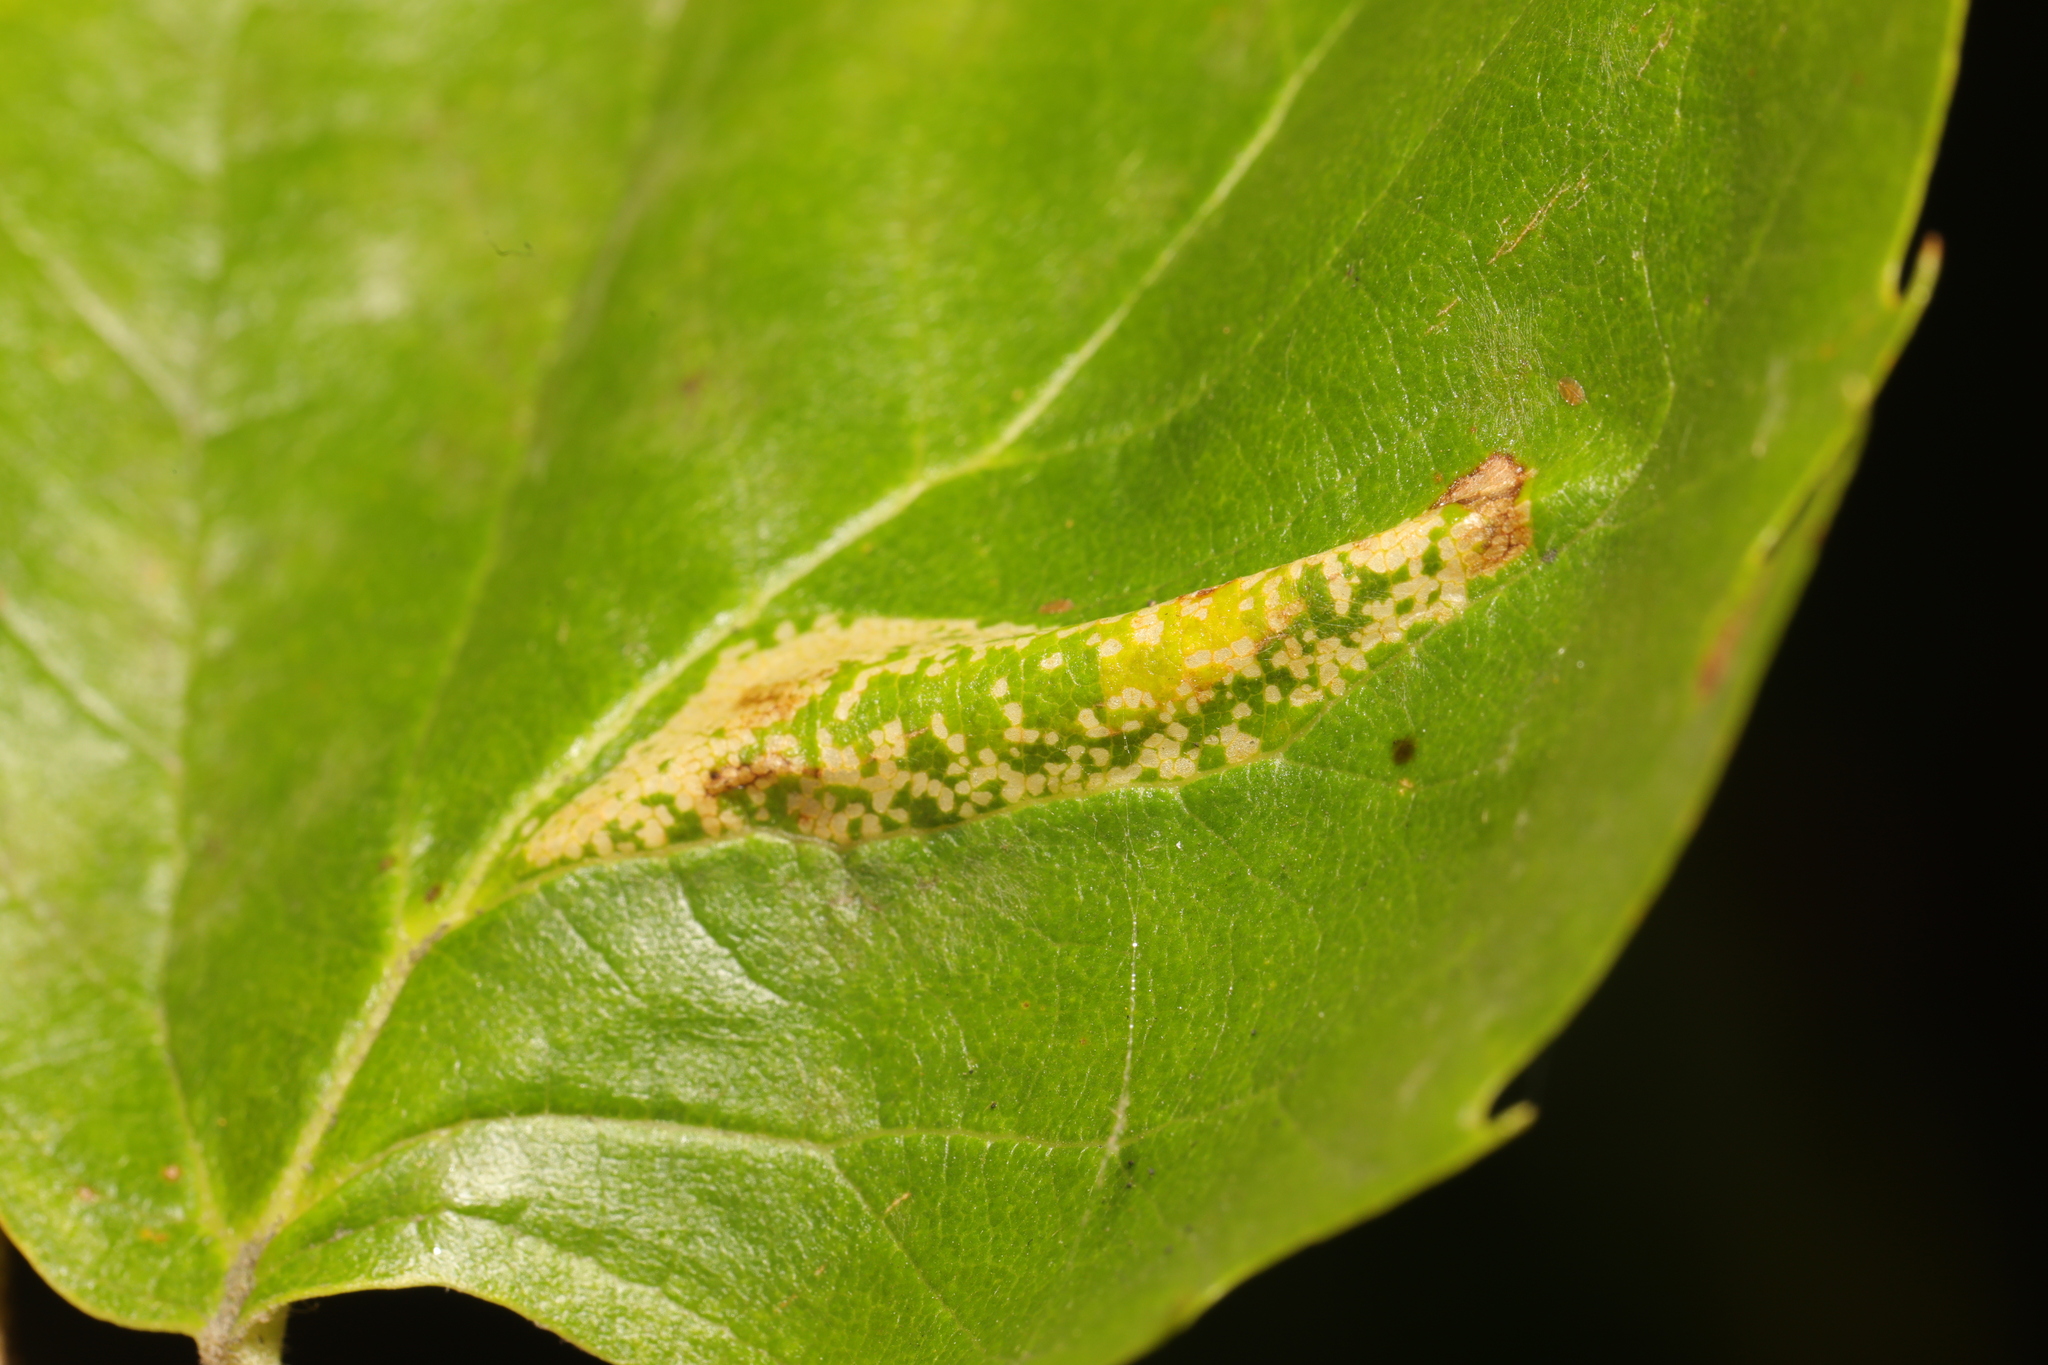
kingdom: Animalia
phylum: Arthropoda
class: Insecta
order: Lepidoptera
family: Gracillariidae
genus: Phyllonorycter
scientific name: Phyllonorycter platani
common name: London midget
